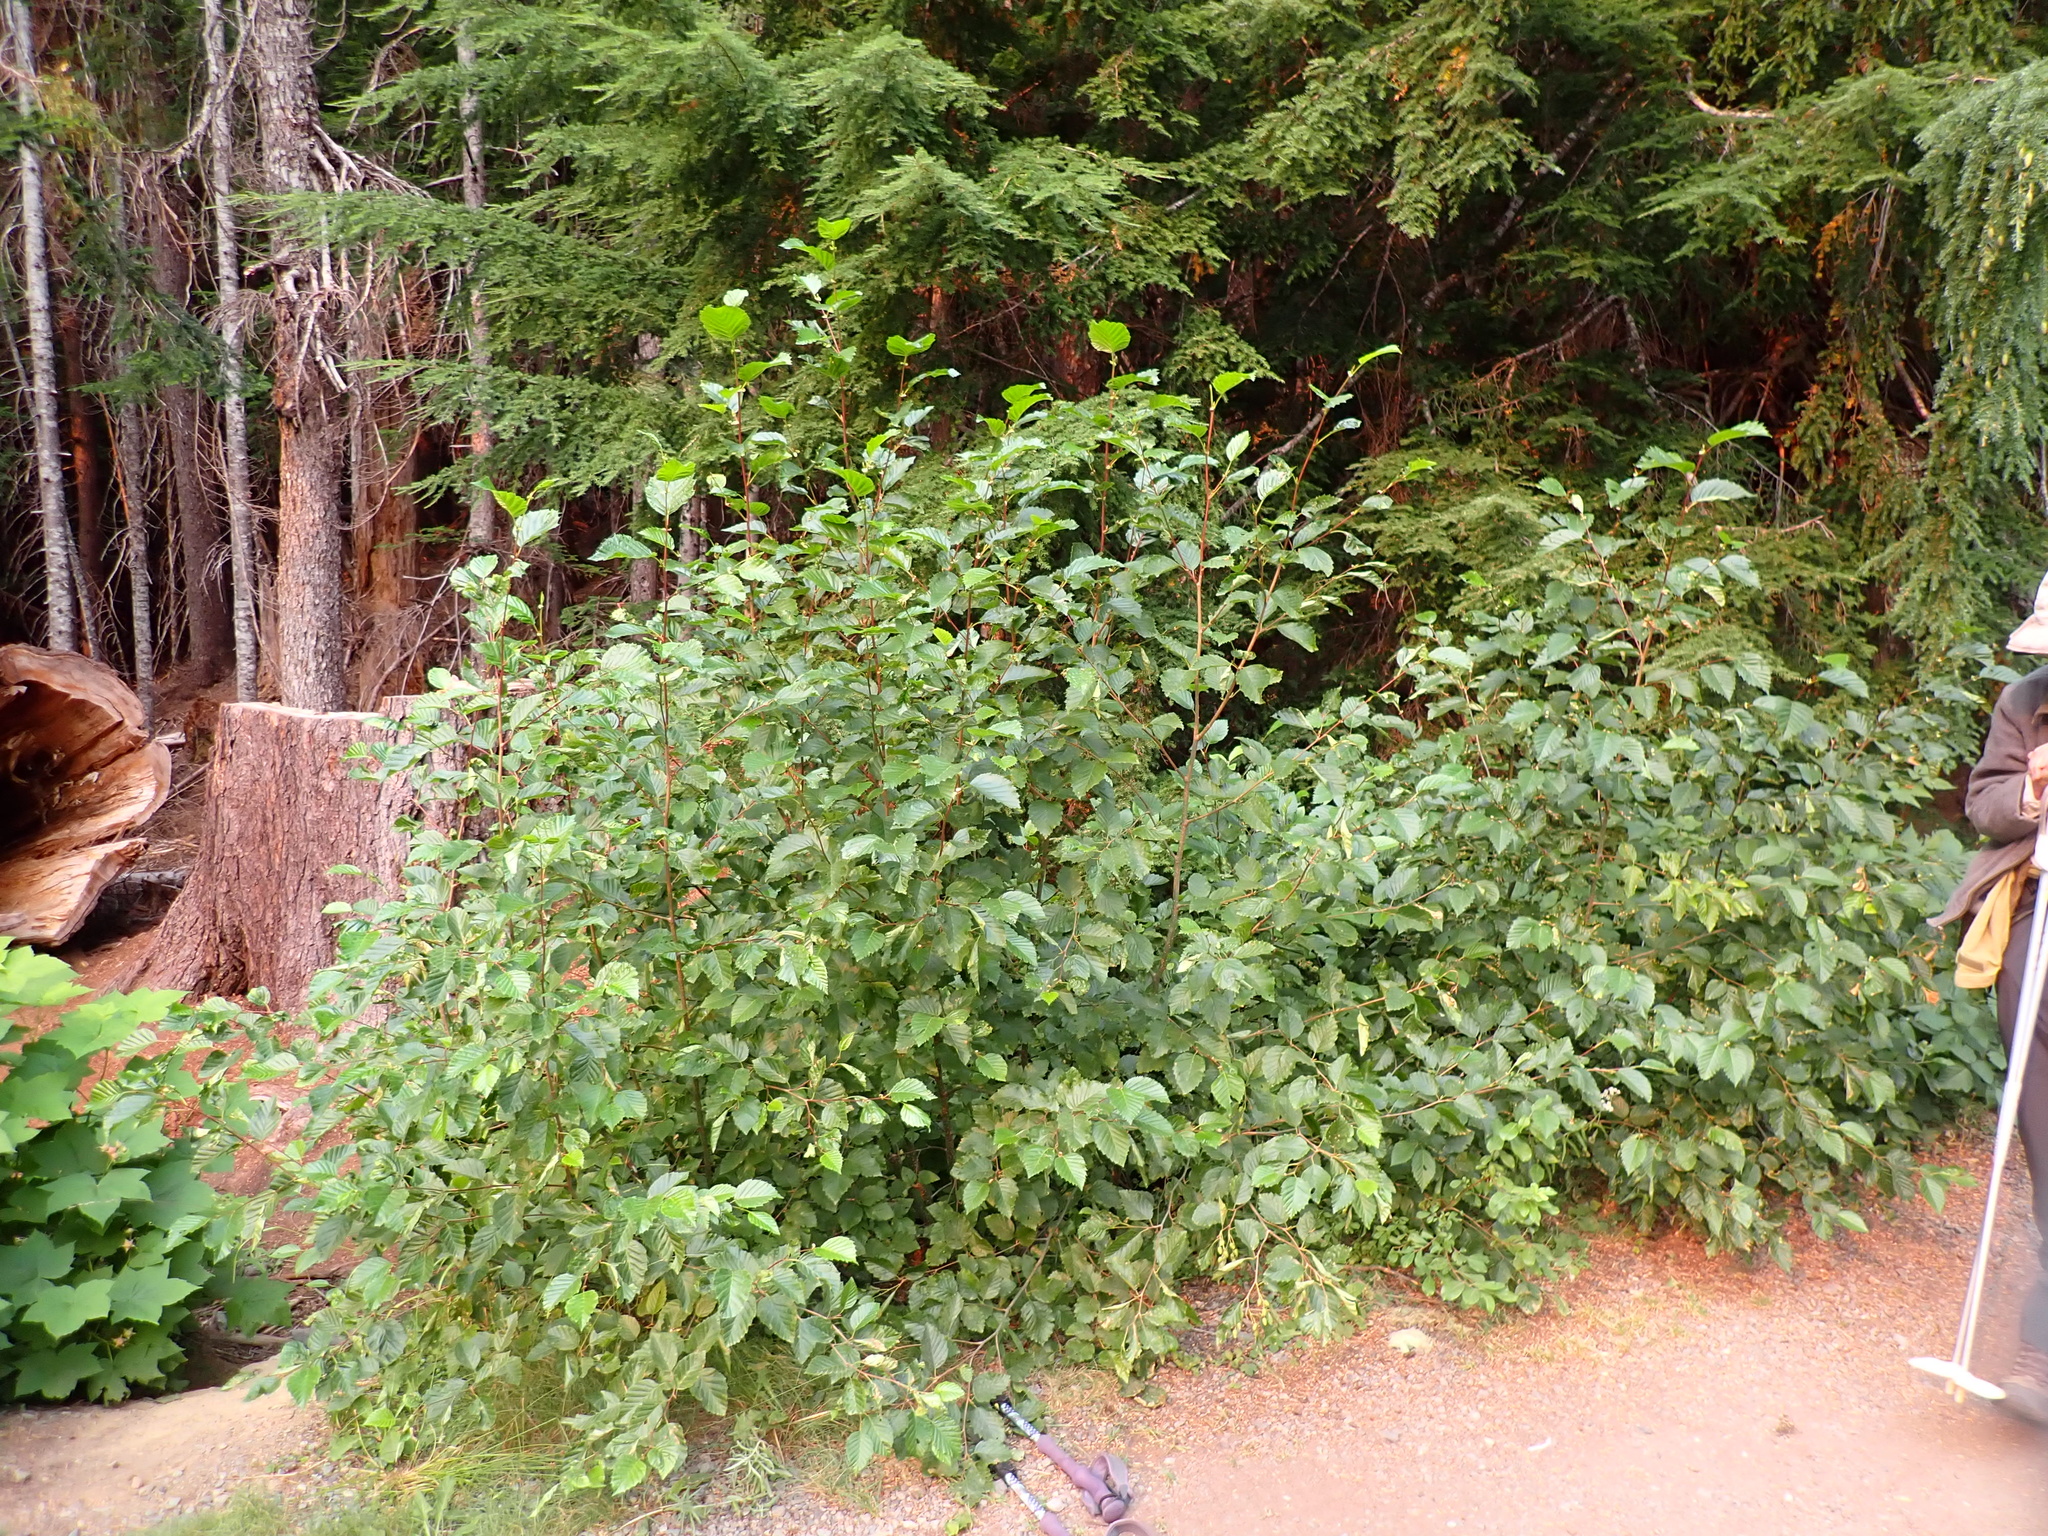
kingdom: Plantae
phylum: Tracheophyta
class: Magnoliopsida
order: Fagales
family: Betulaceae
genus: Alnus
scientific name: Alnus alnobetula
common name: Green alder
